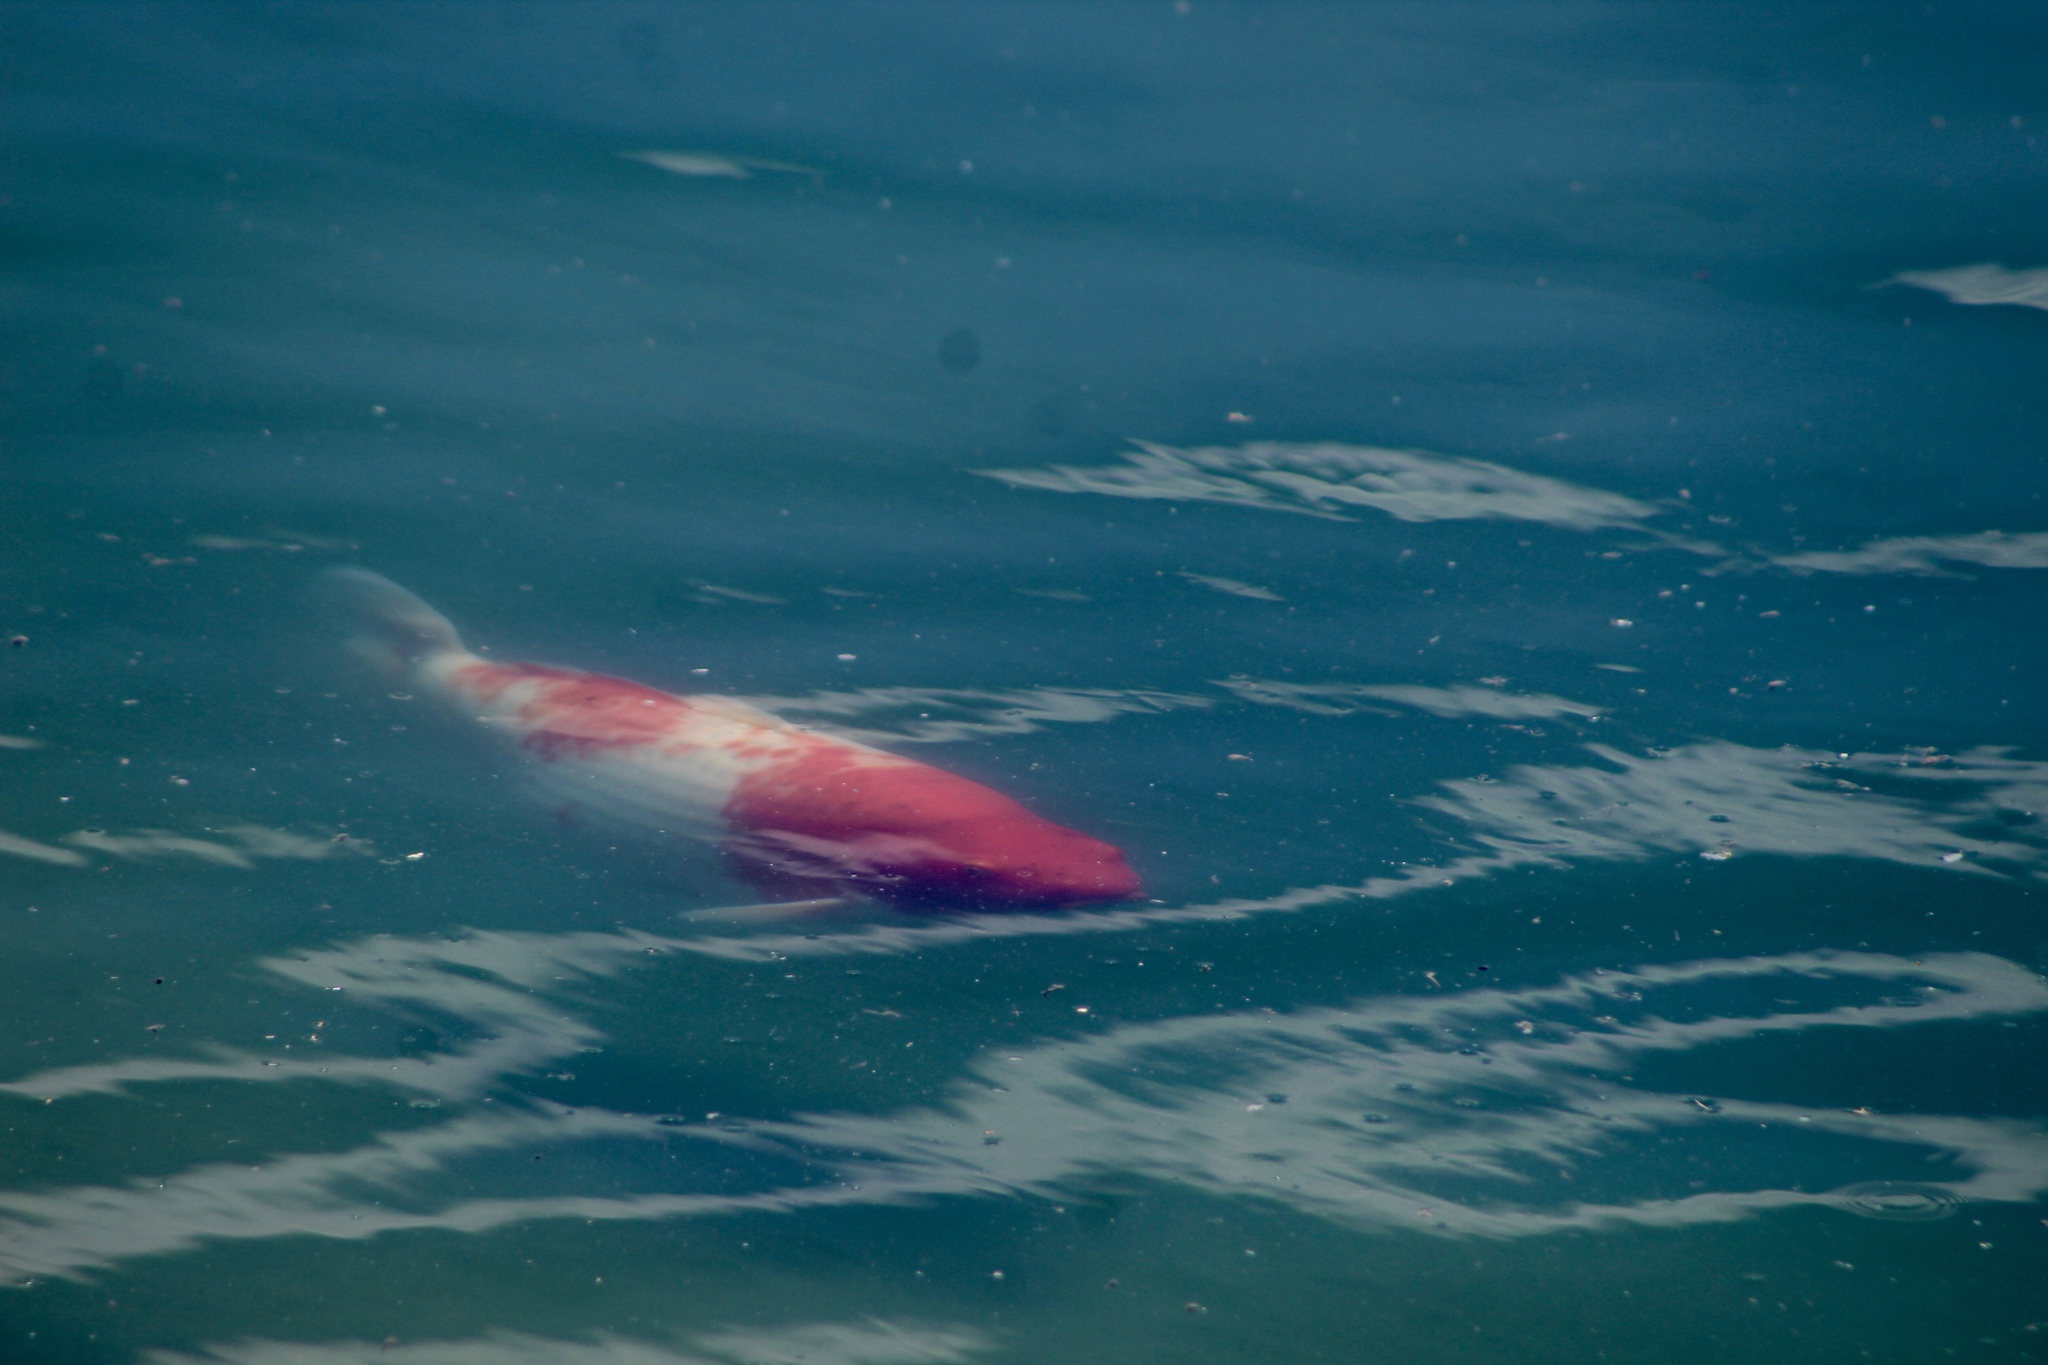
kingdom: Animalia
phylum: Chordata
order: Cypriniformes
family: Cyprinidae
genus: Cyprinus
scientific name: Cyprinus rubrofuscus
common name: Koi
